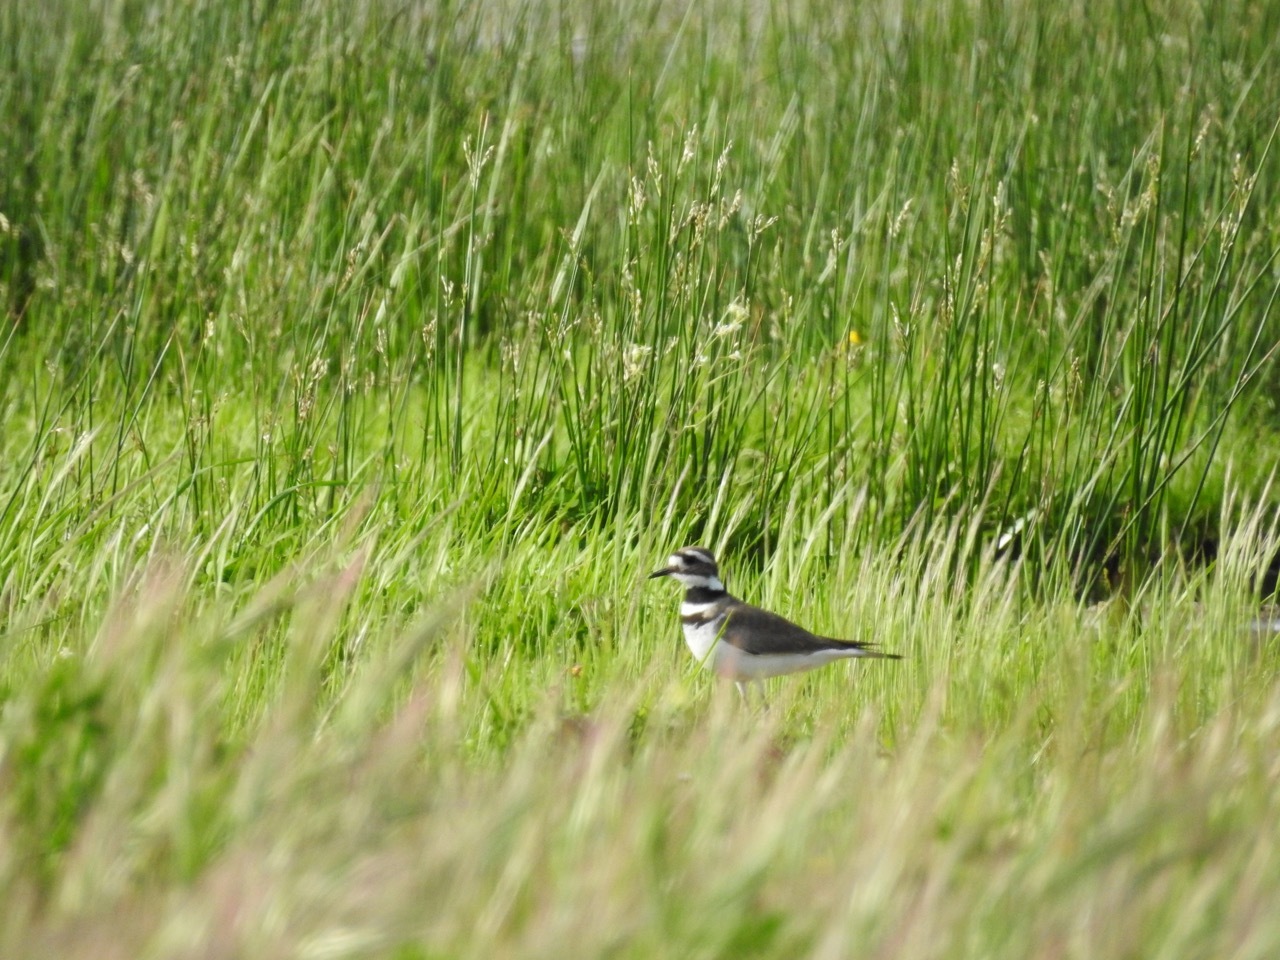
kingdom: Animalia
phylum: Chordata
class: Aves
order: Charadriiformes
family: Charadriidae
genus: Charadrius
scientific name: Charadrius vociferus
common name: Killdeer
